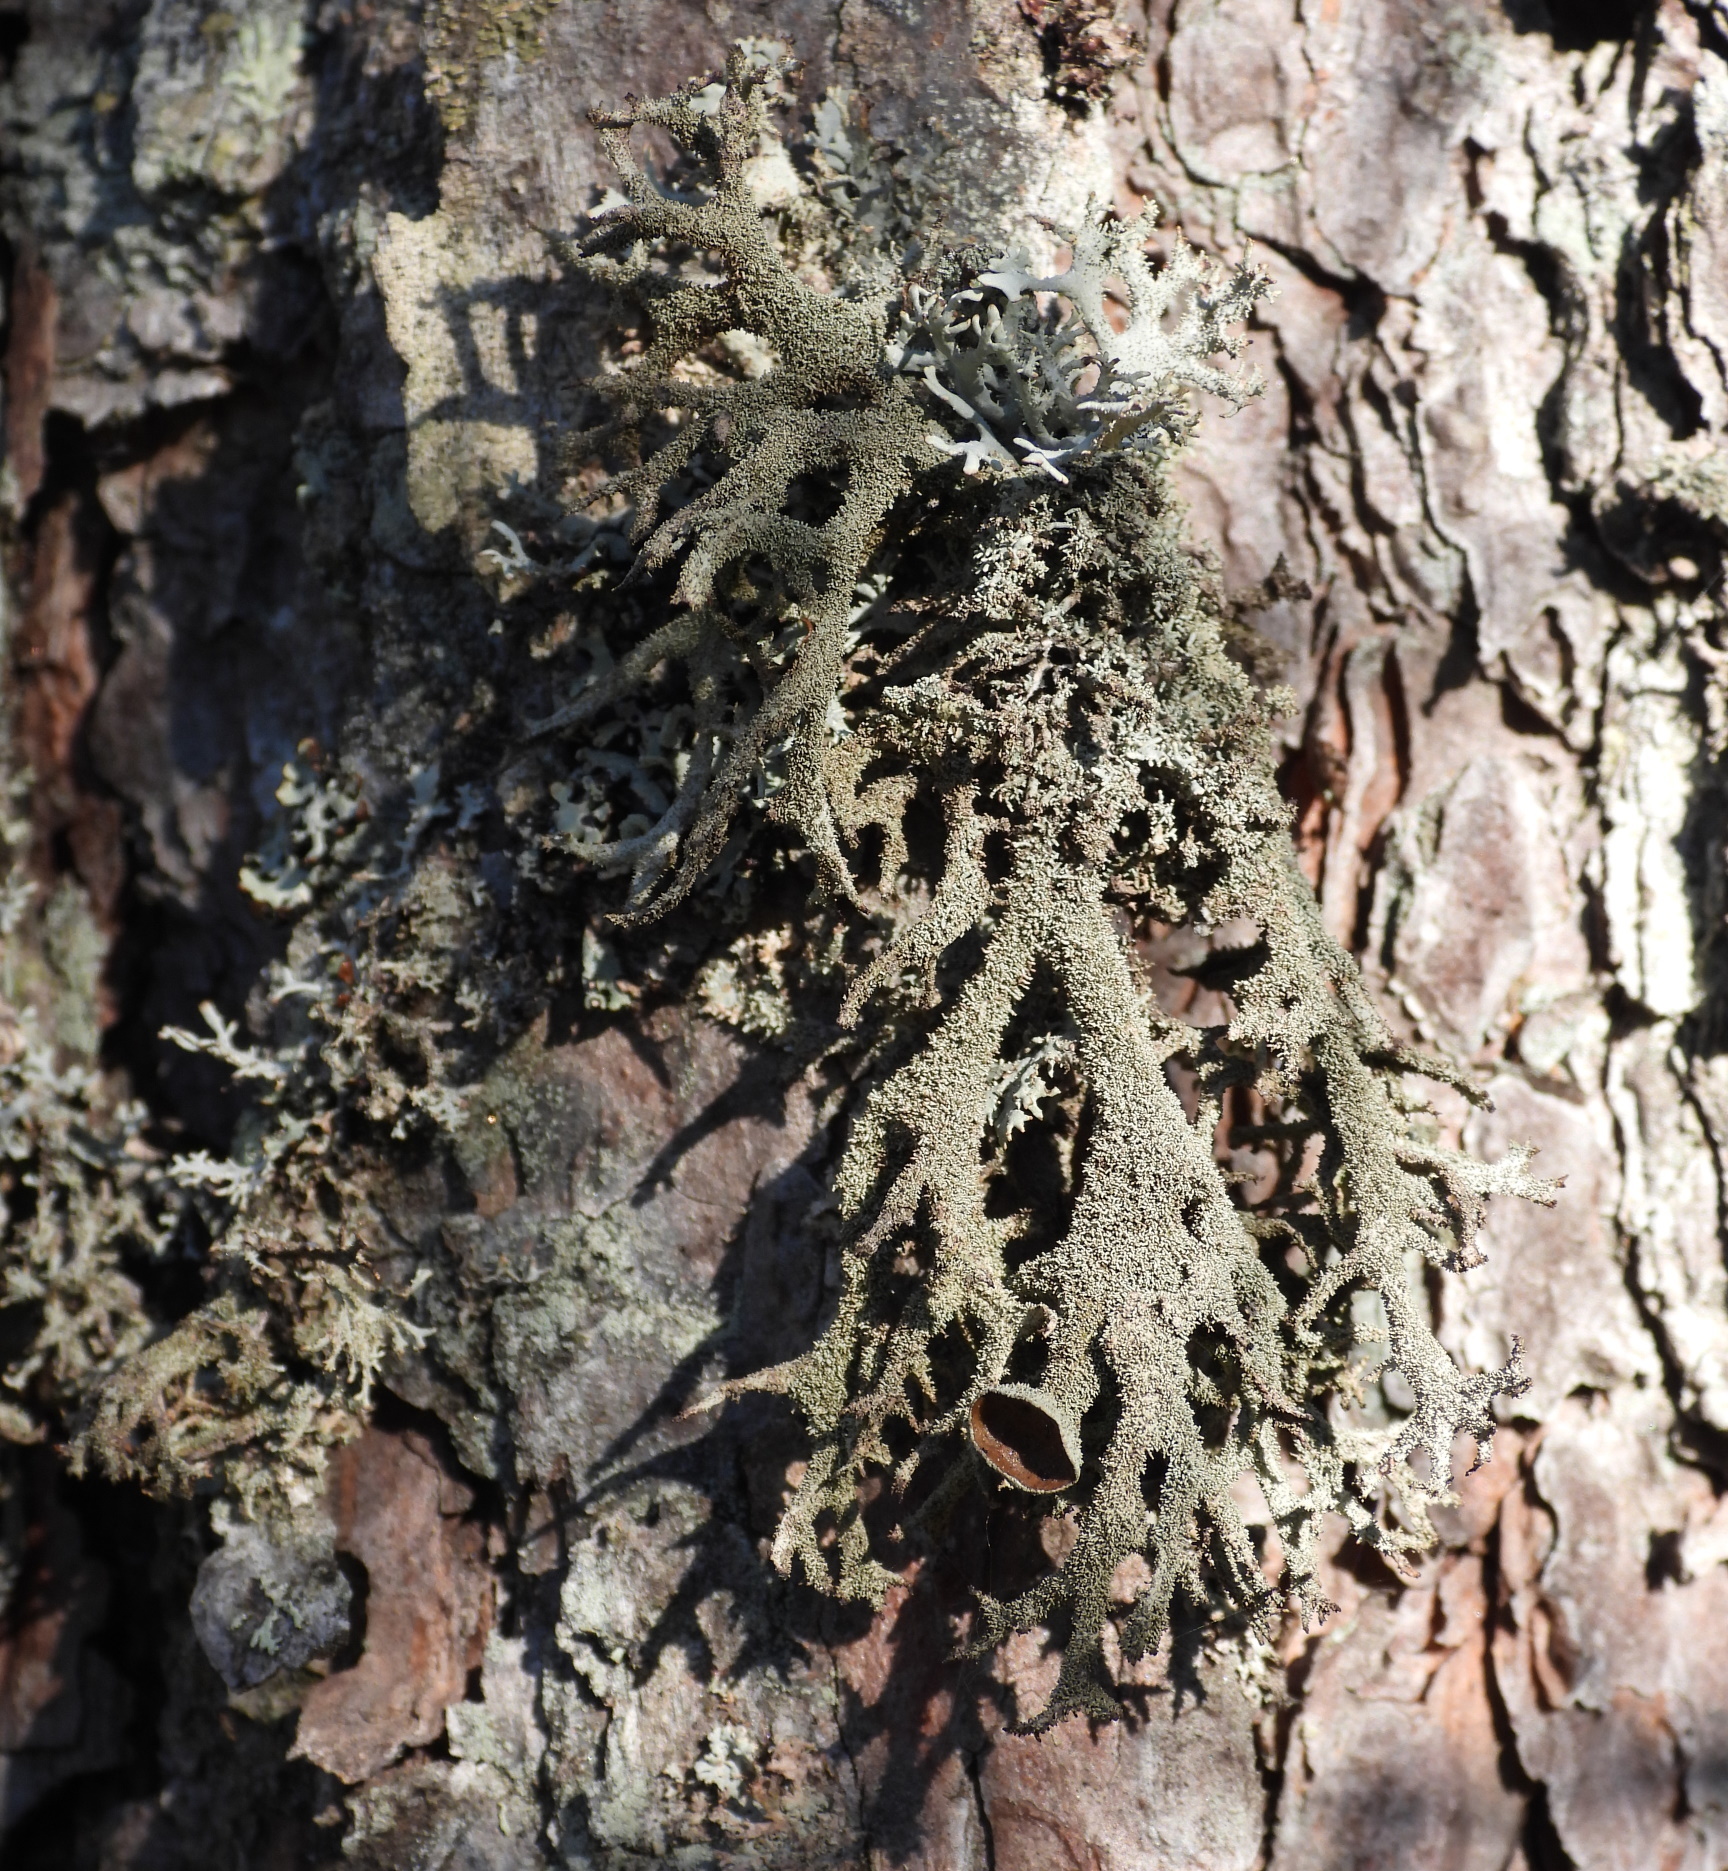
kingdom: Fungi
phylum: Ascomycota
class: Lecanoromycetes
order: Lecanorales
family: Parmeliaceae
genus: Pseudevernia
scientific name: Pseudevernia furfuracea
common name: Tree moss
